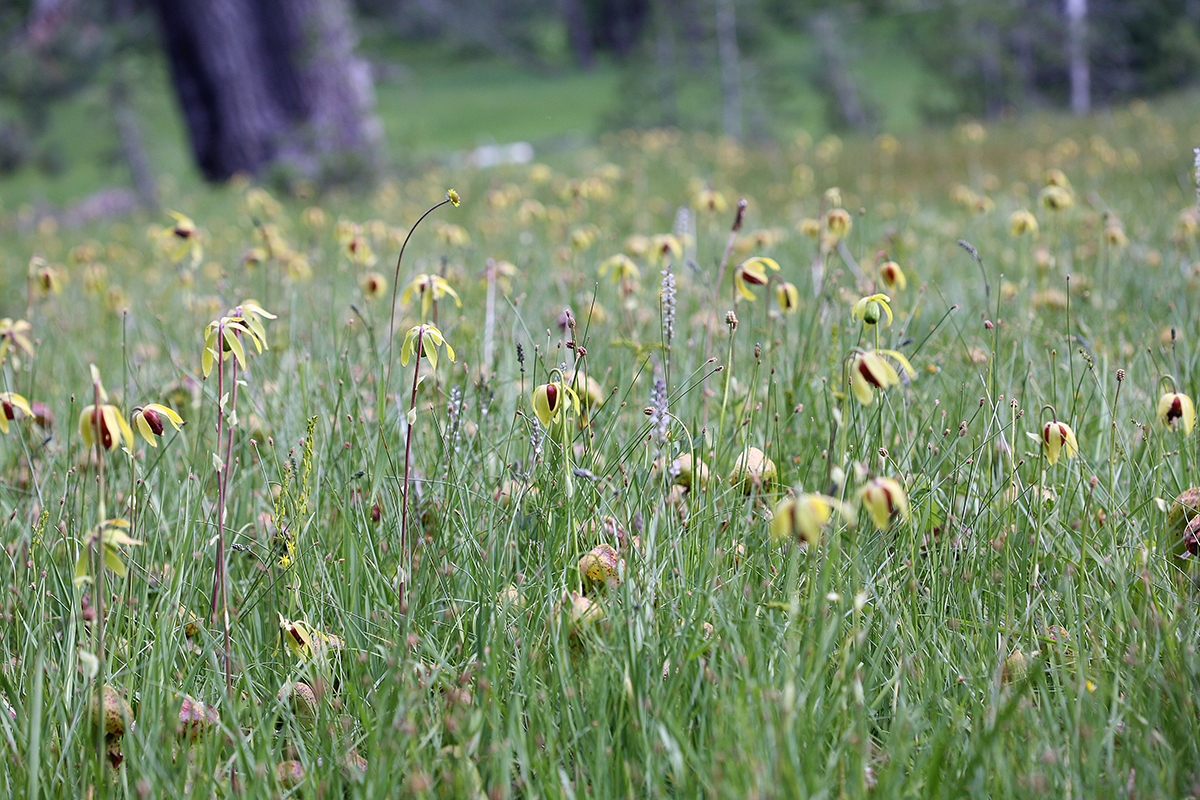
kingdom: Plantae
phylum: Tracheophyta
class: Magnoliopsida
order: Ericales
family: Sarraceniaceae
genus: Darlingtonia
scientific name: Darlingtonia californica
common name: California pitcher plant
